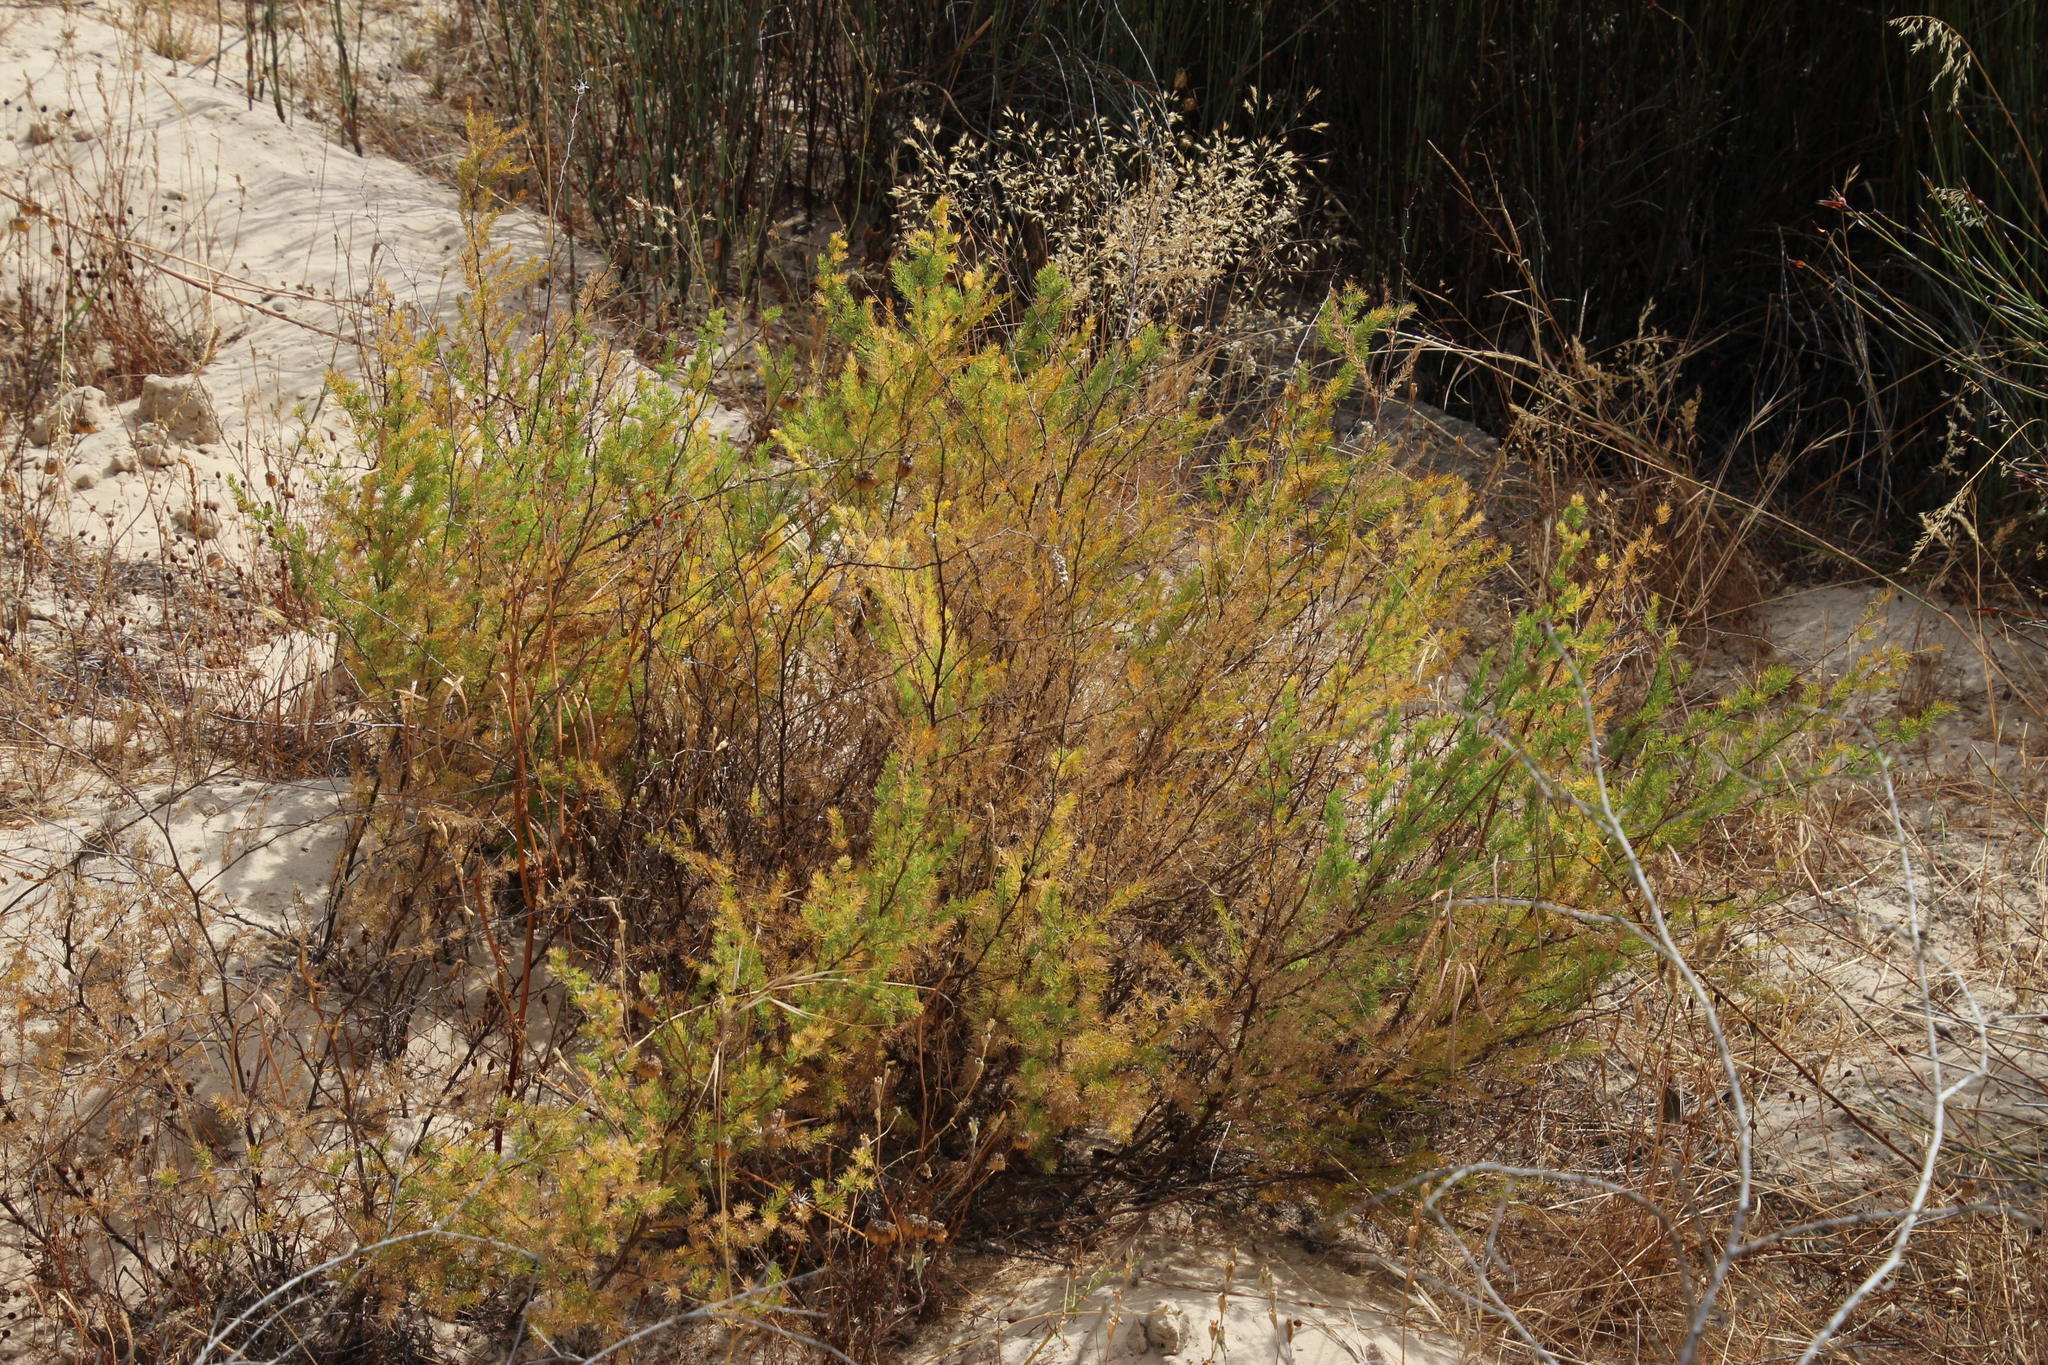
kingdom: Plantae
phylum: Tracheophyta
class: Liliopsida
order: Asparagales
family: Asparagaceae
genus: Asparagus
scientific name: Asparagus rubicundus
